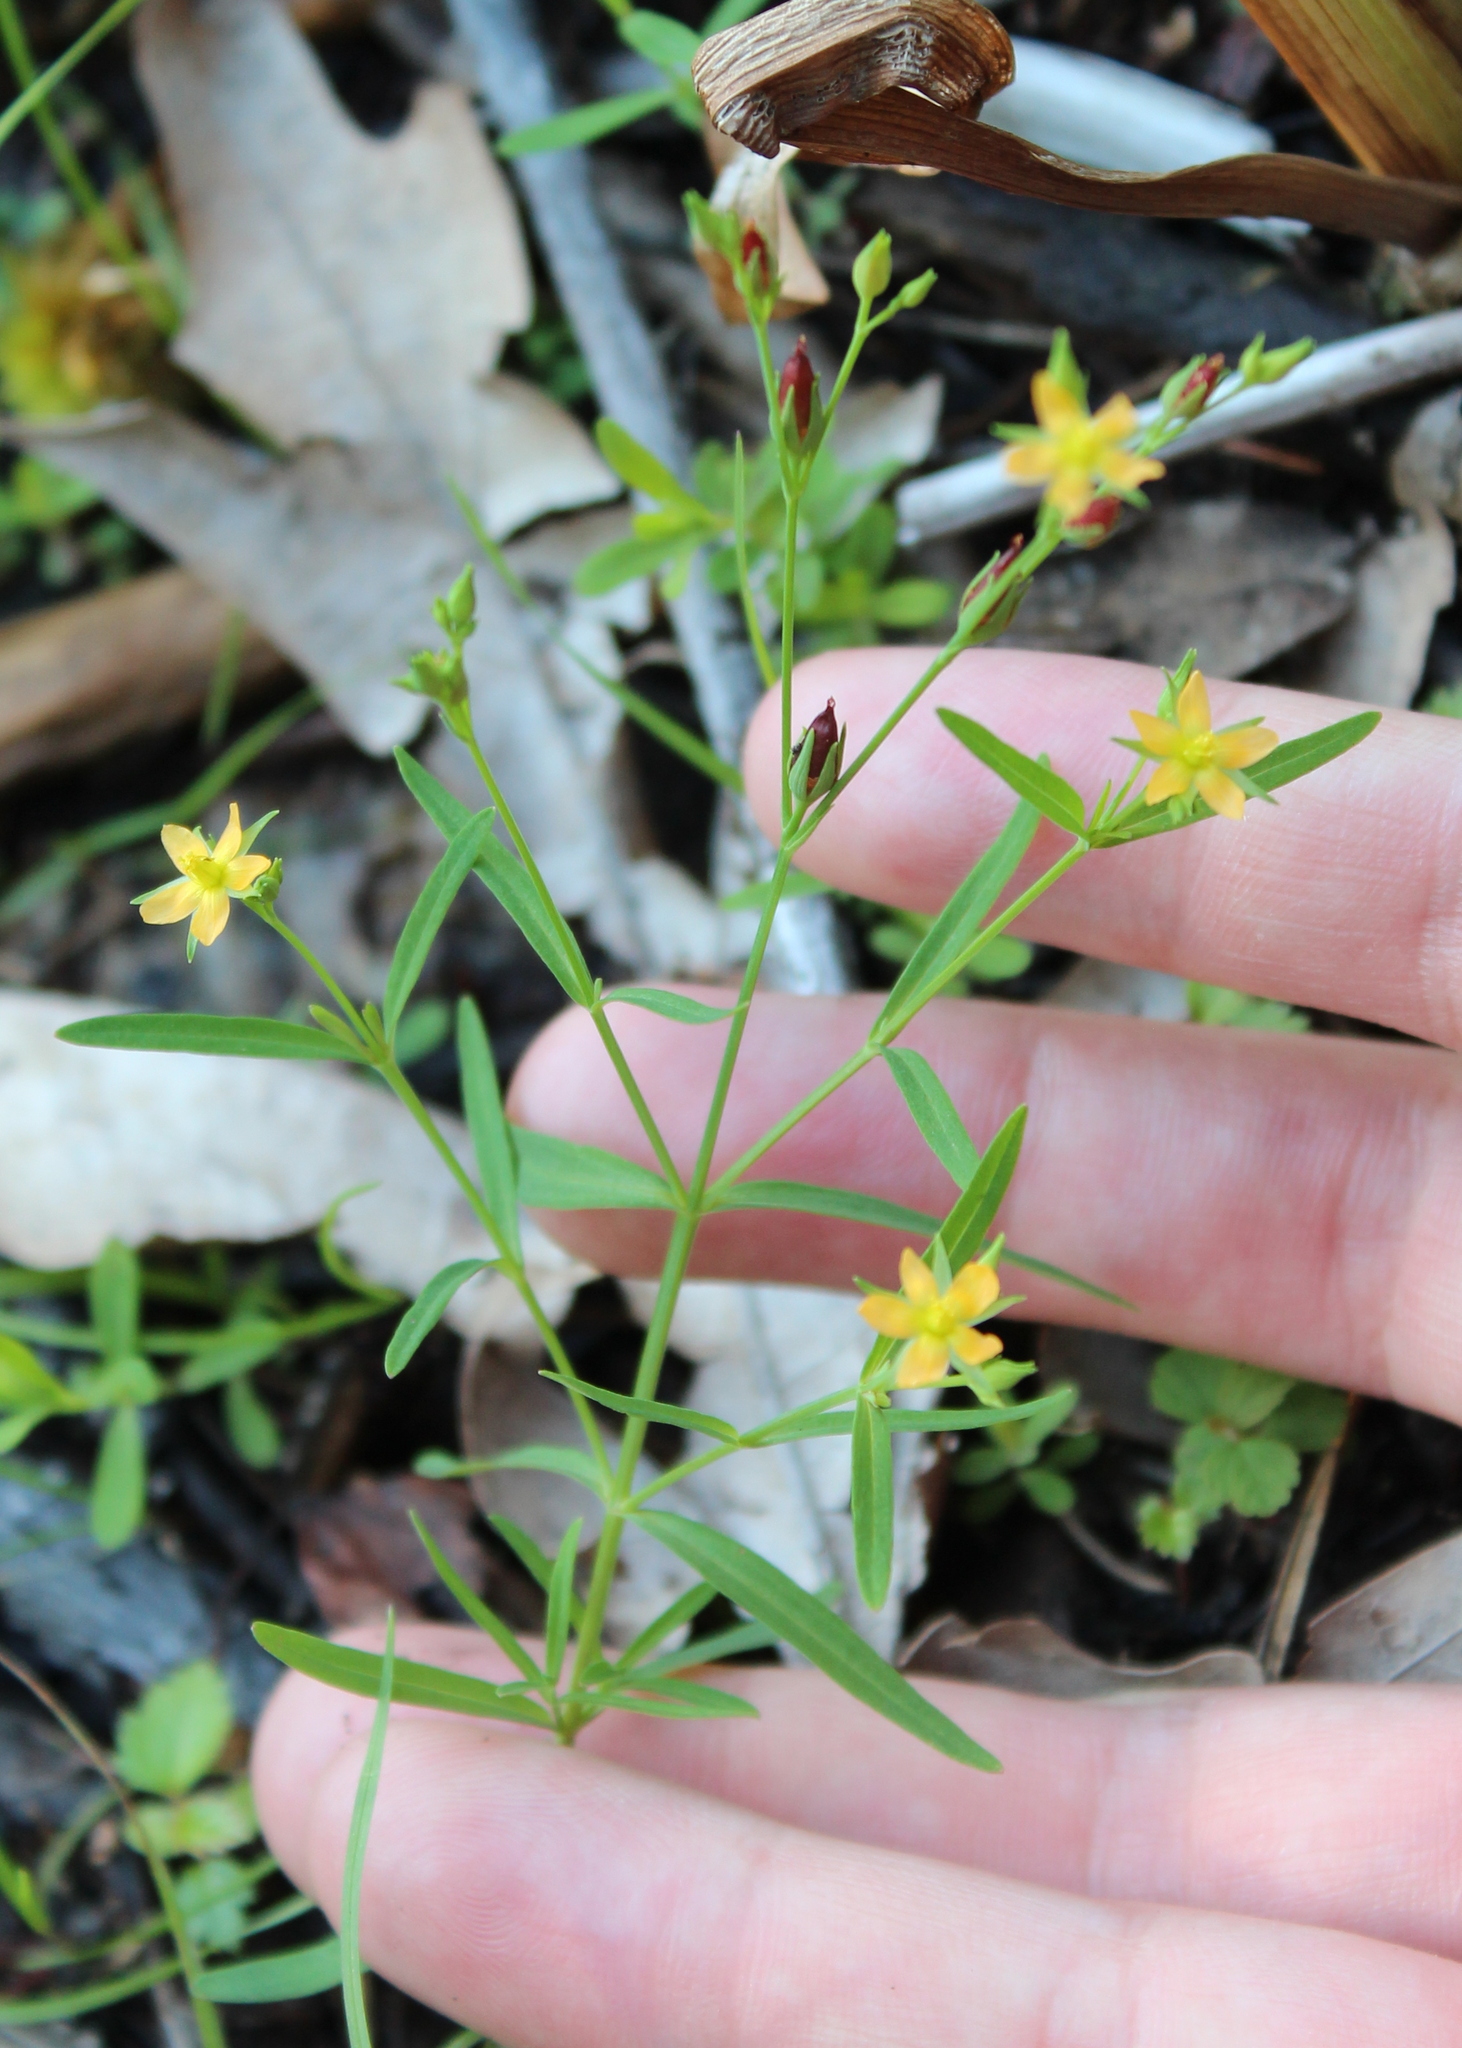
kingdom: Plantae
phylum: Tracheophyta
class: Magnoliopsida
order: Malpighiales
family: Hypericaceae
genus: Hypericum
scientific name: Hypericum canadense
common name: Irish st. john's-wort
